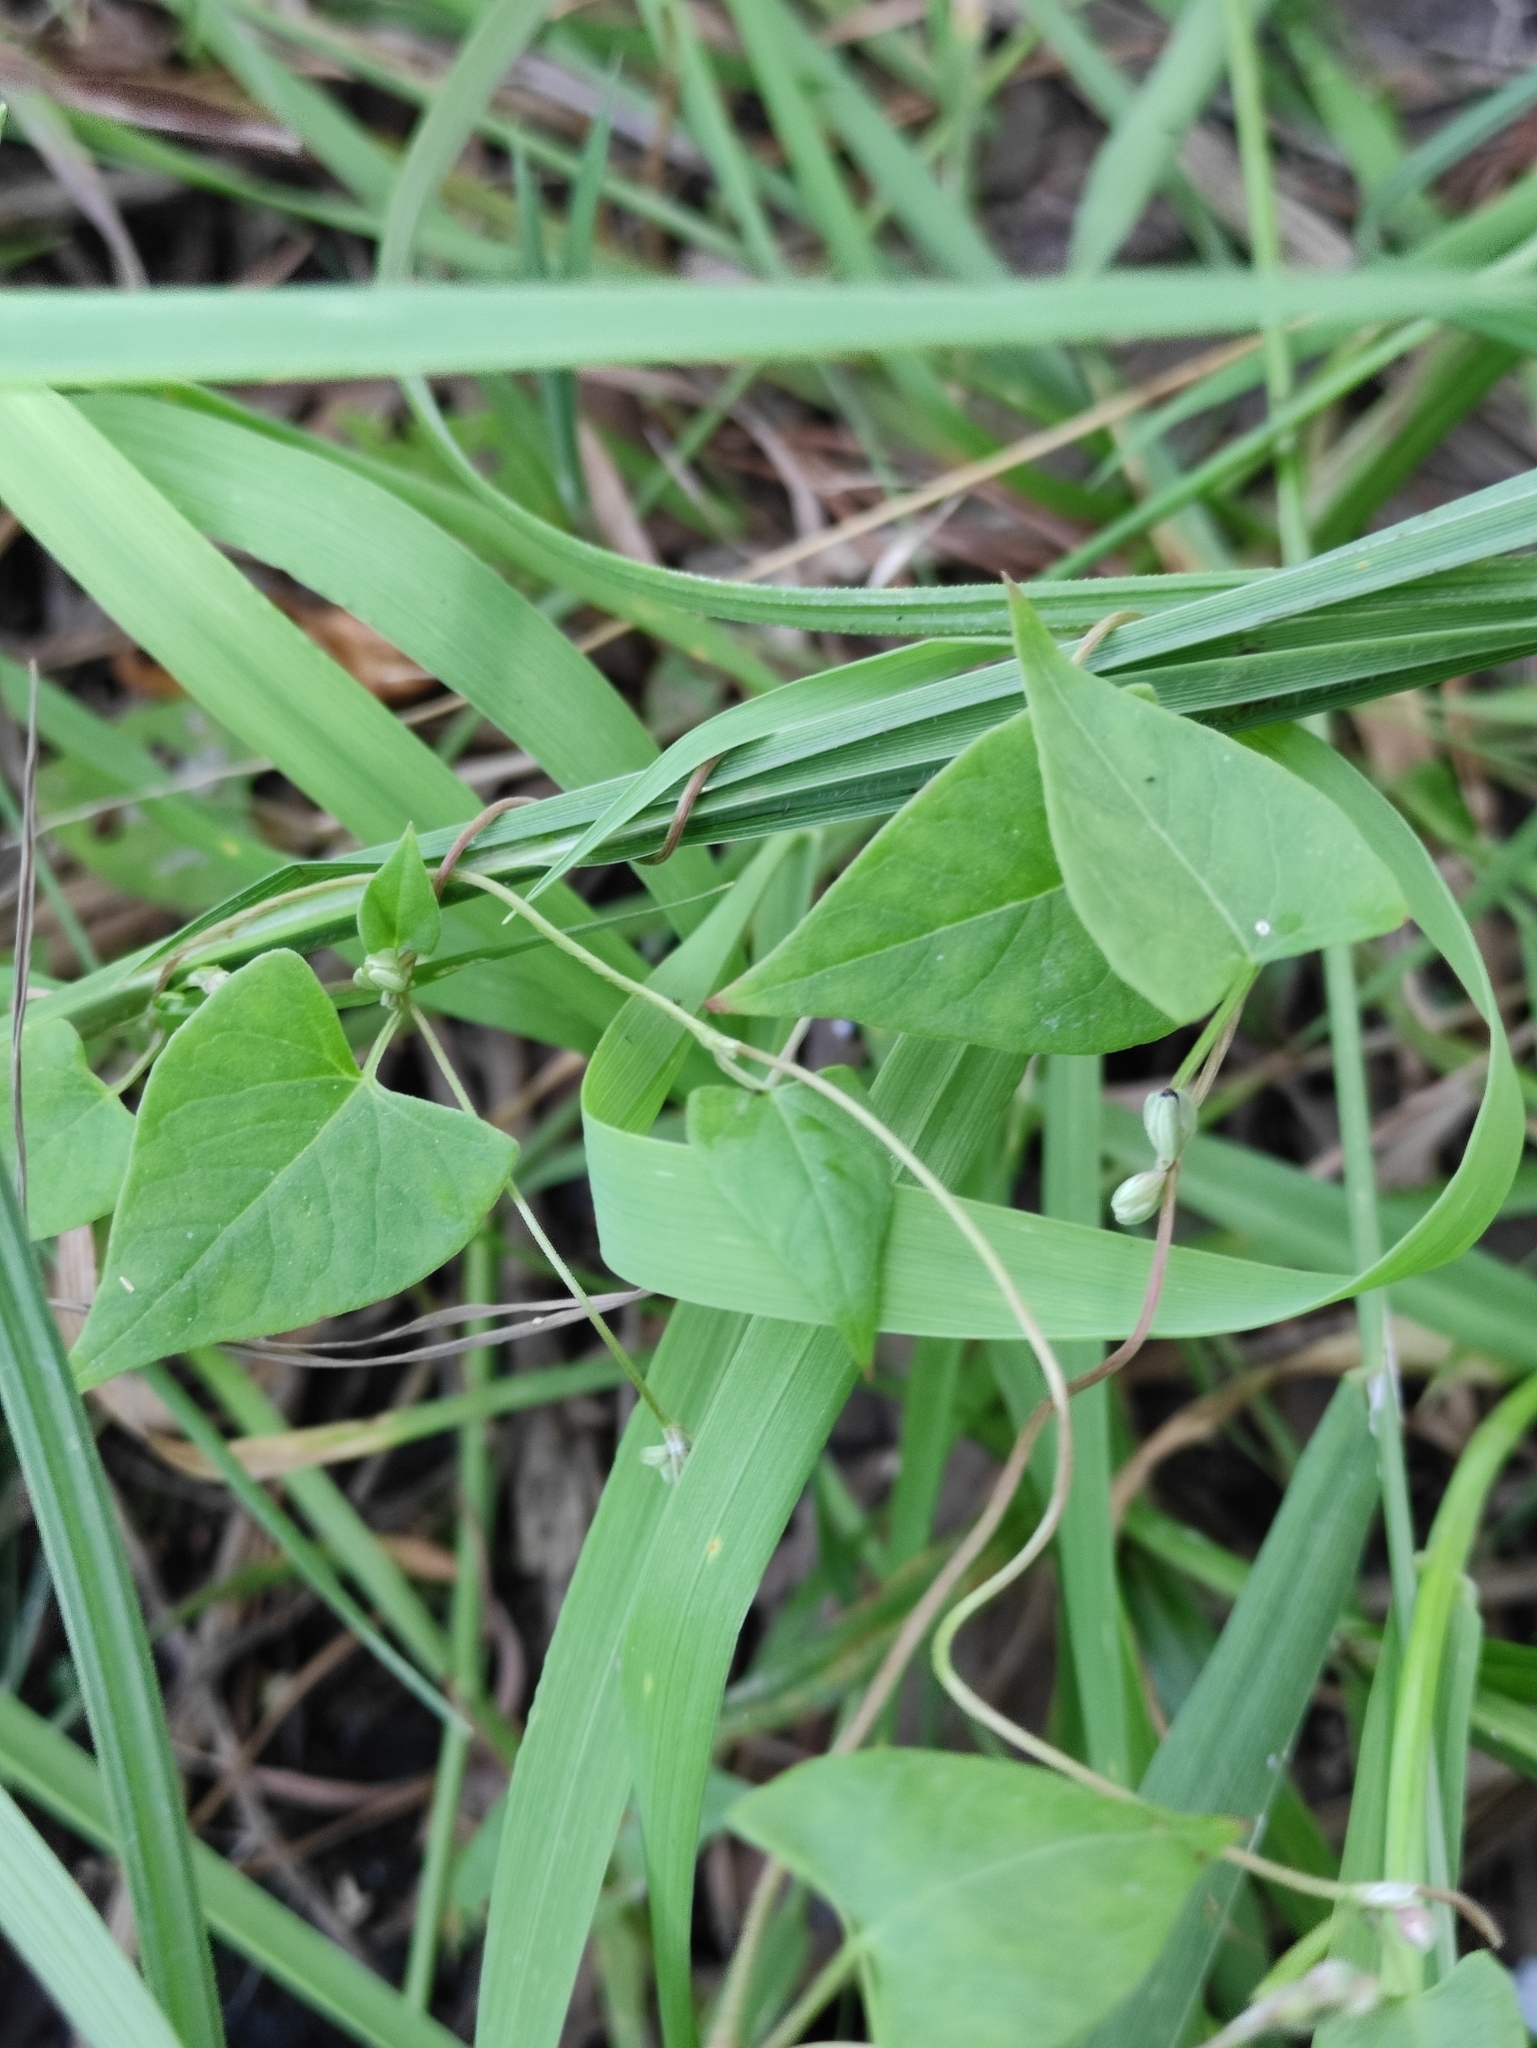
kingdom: Plantae
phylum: Tracheophyta
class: Magnoliopsida
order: Caryophyllales
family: Polygonaceae
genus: Fallopia
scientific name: Fallopia convolvulus
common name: Black bindweed
